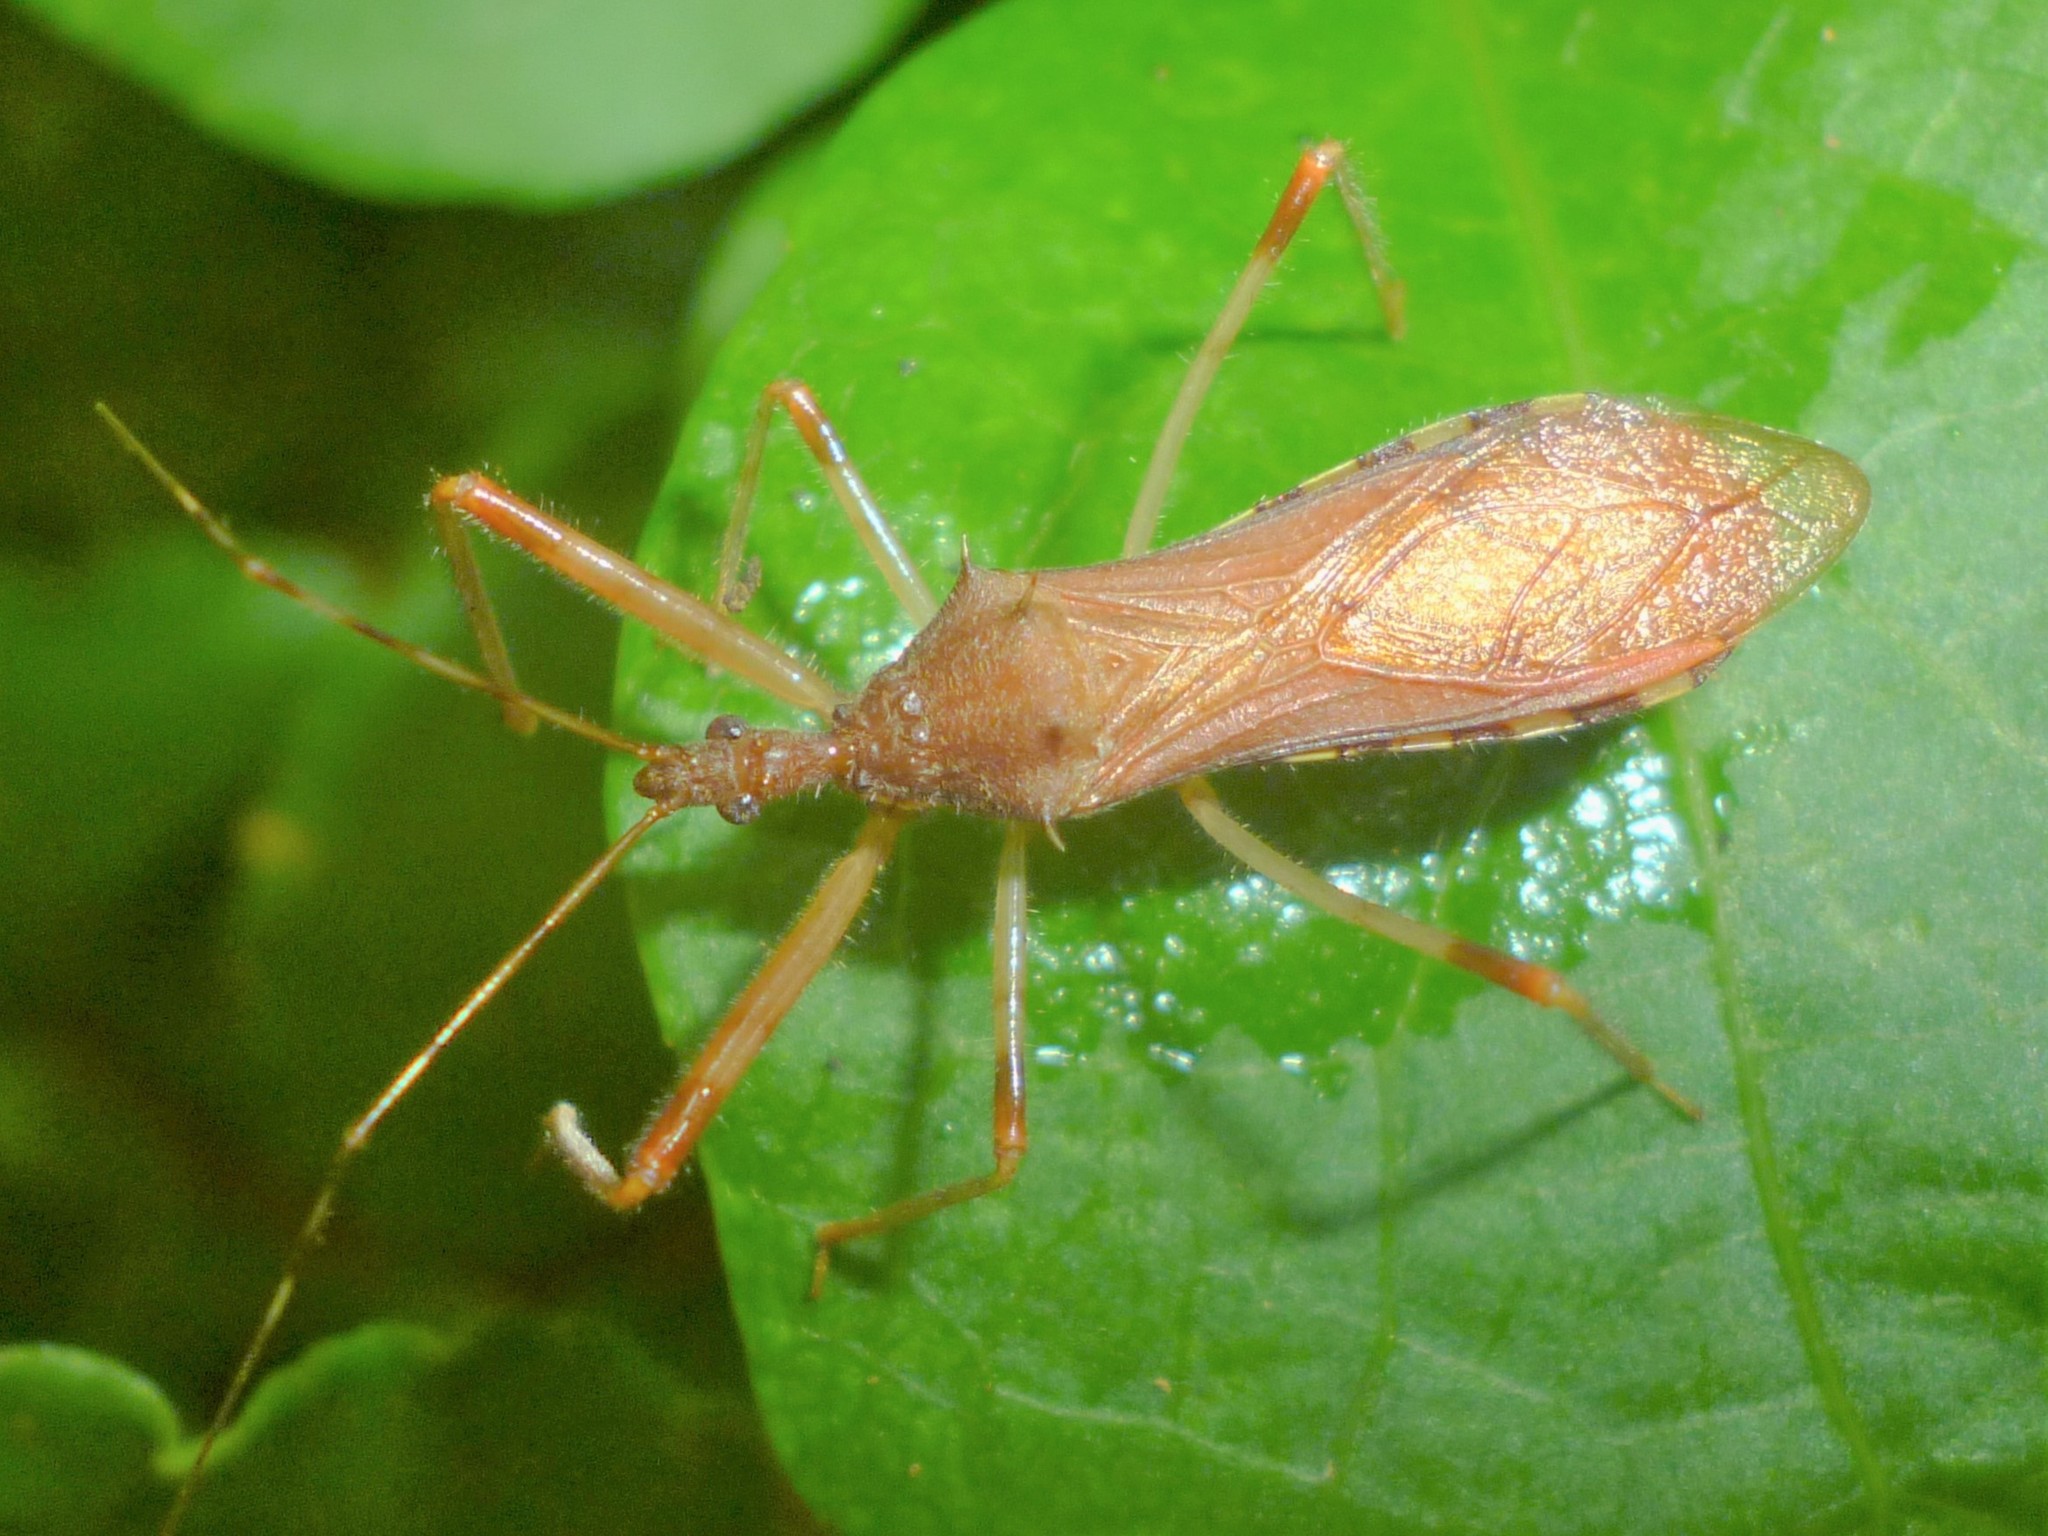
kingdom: Animalia
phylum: Arthropoda
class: Insecta
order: Hemiptera
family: Reduviidae
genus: Rocconota
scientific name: Rocconota annulicornis
